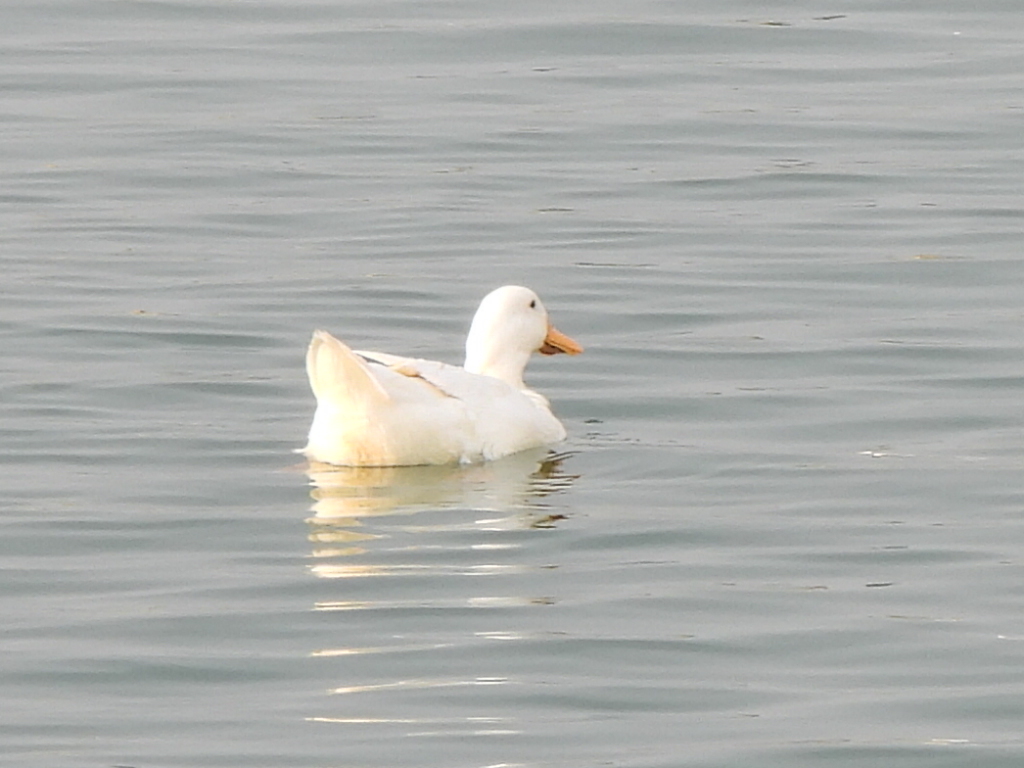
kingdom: Animalia
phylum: Chordata
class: Aves
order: Anseriformes
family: Anatidae
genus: Anas
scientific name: Anas platyrhynchos
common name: Mallard
